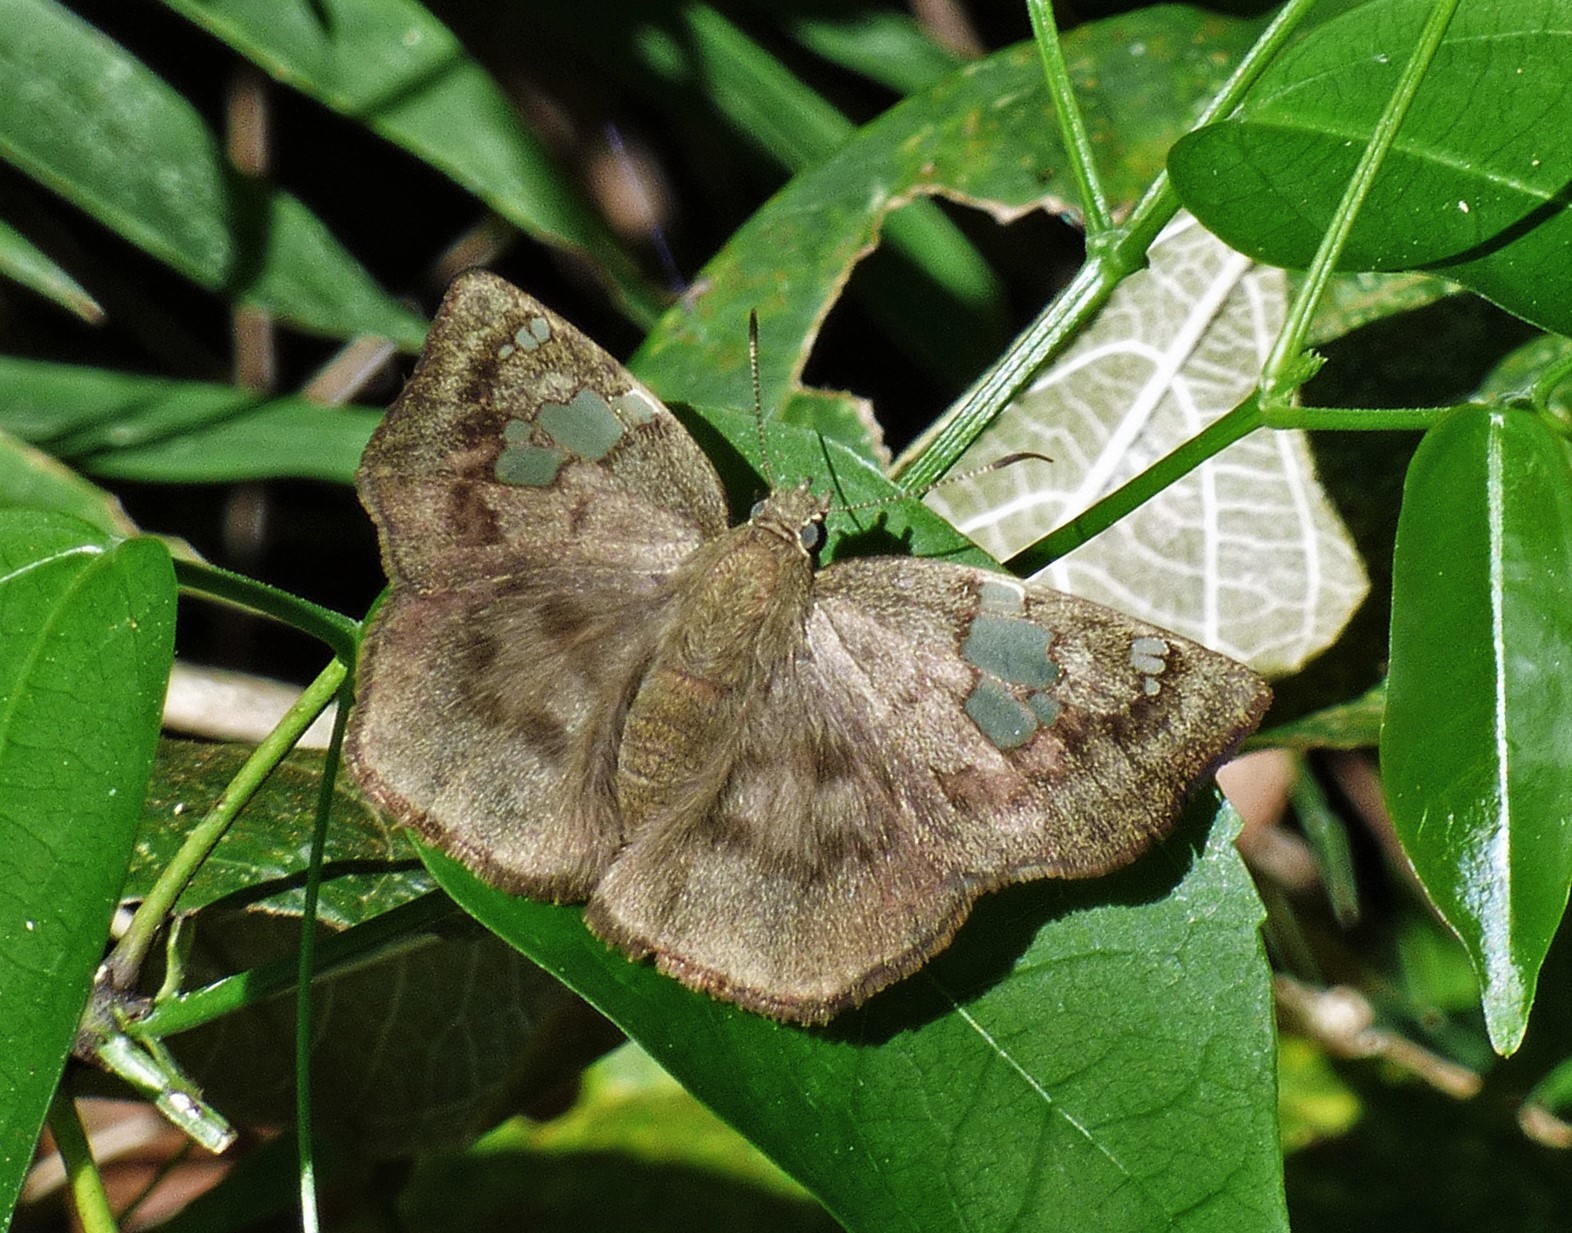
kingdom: Animalia
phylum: Arthropoda
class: Insecta
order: Lepidoptera
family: Hesperiidae
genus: Telemiades
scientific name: Telemiades amphion
